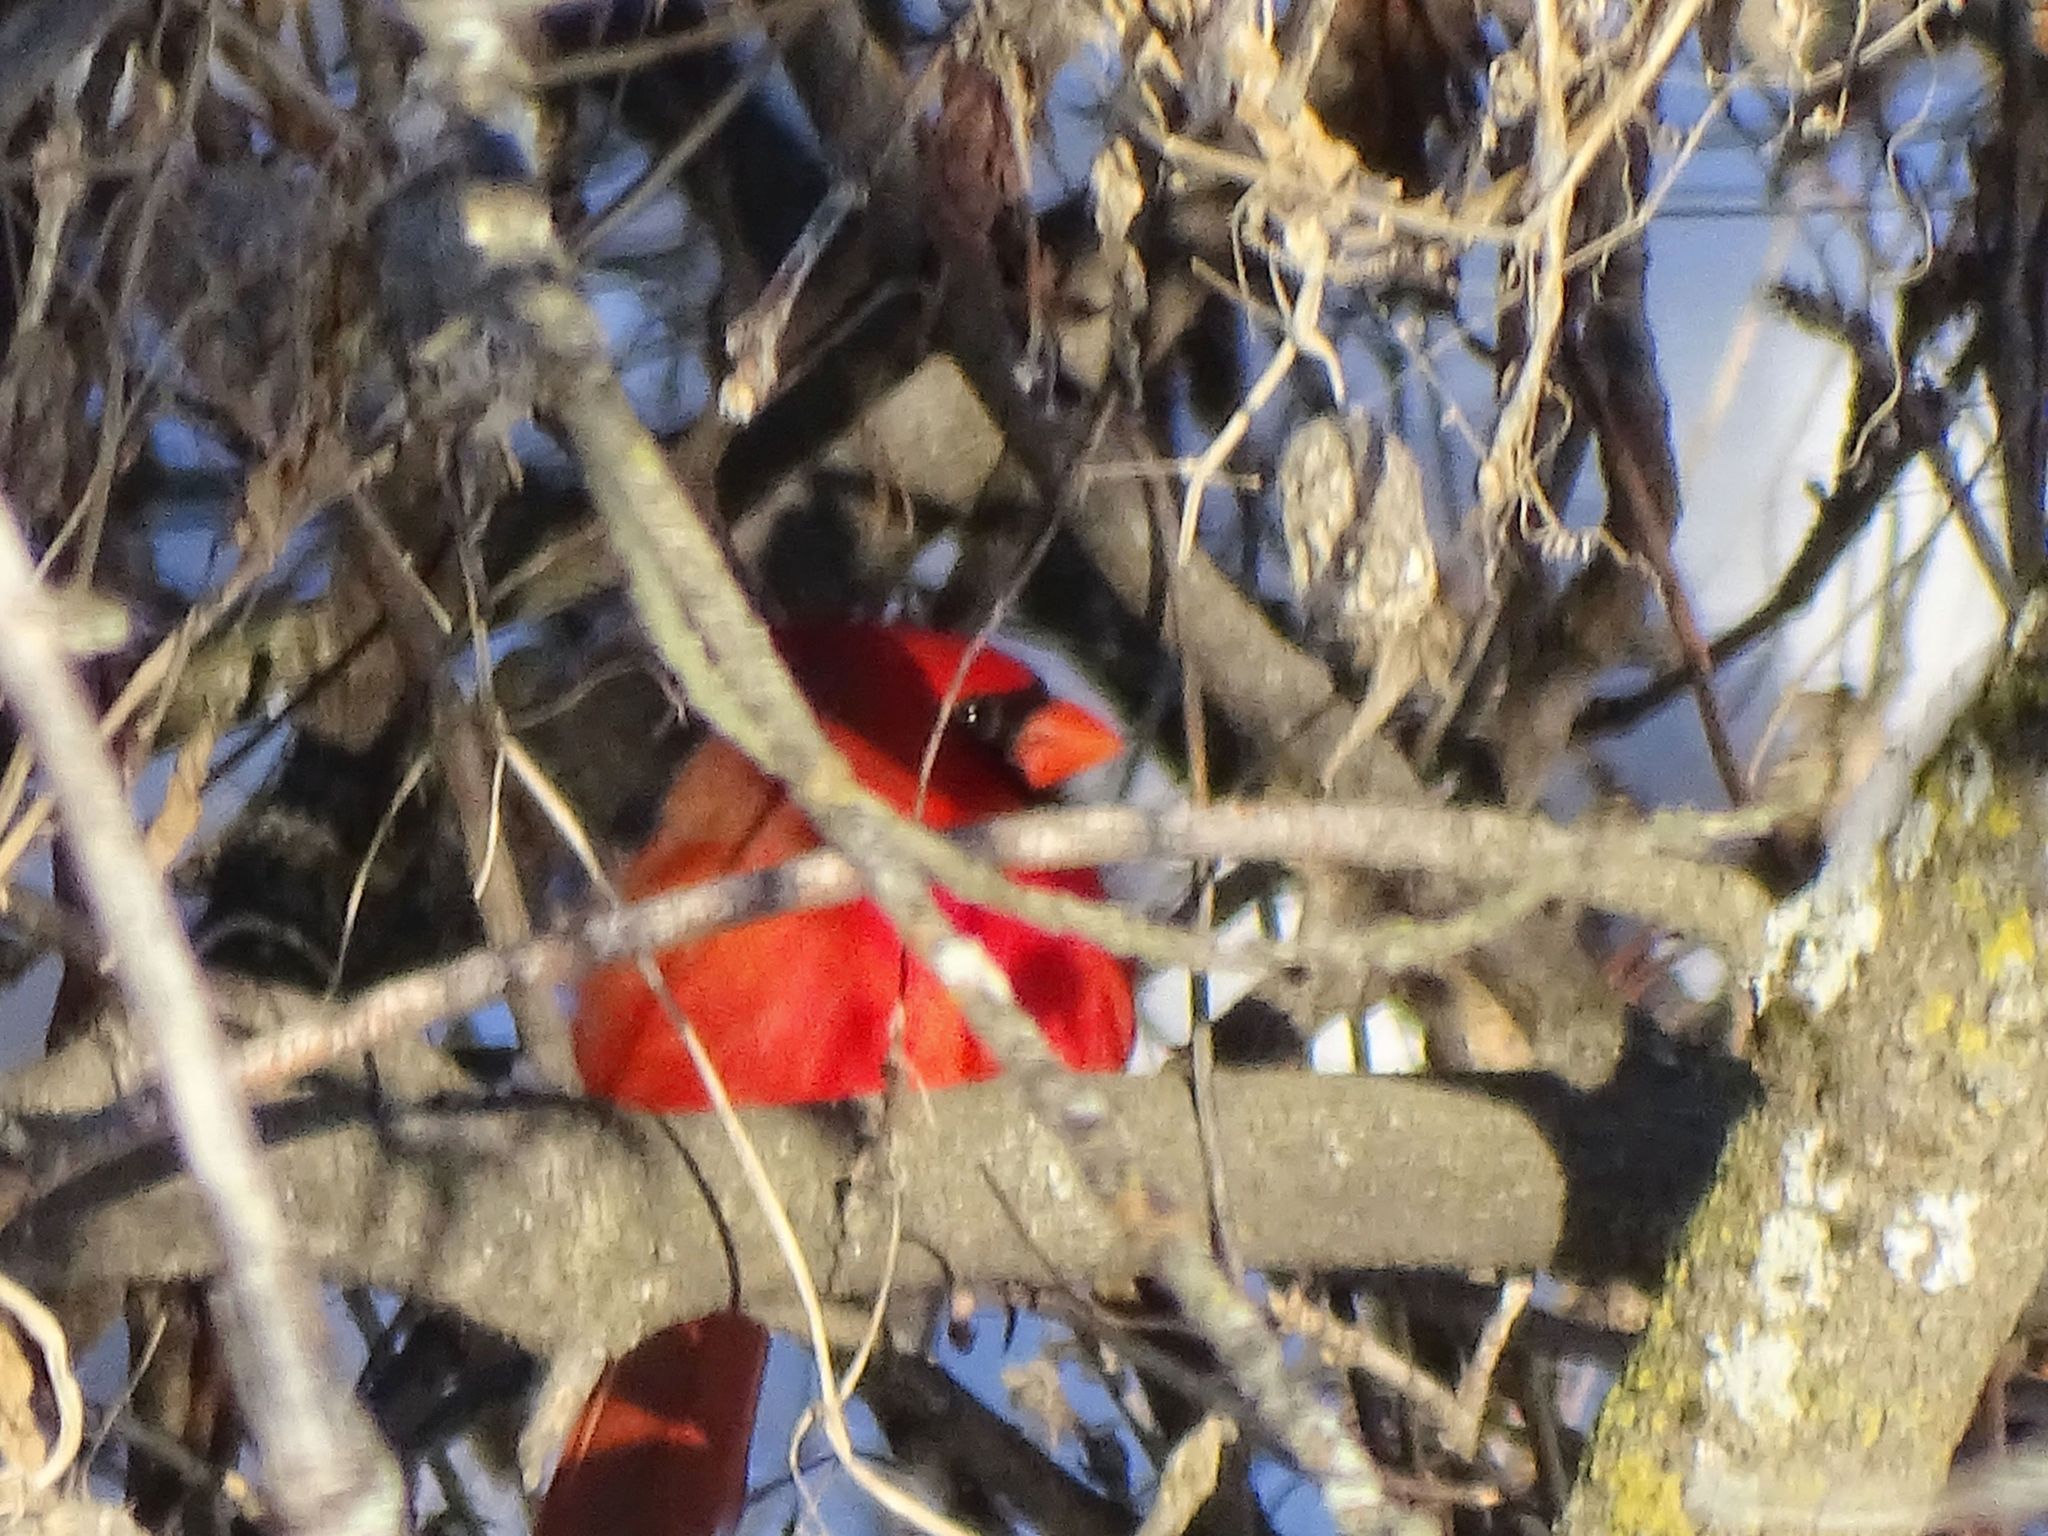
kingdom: Animalia
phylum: Chordata
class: Aves
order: Passeriformes
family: Cardinalidae
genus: Cardinalis
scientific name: Cardinalis cardinalis
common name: Northern cardinal
